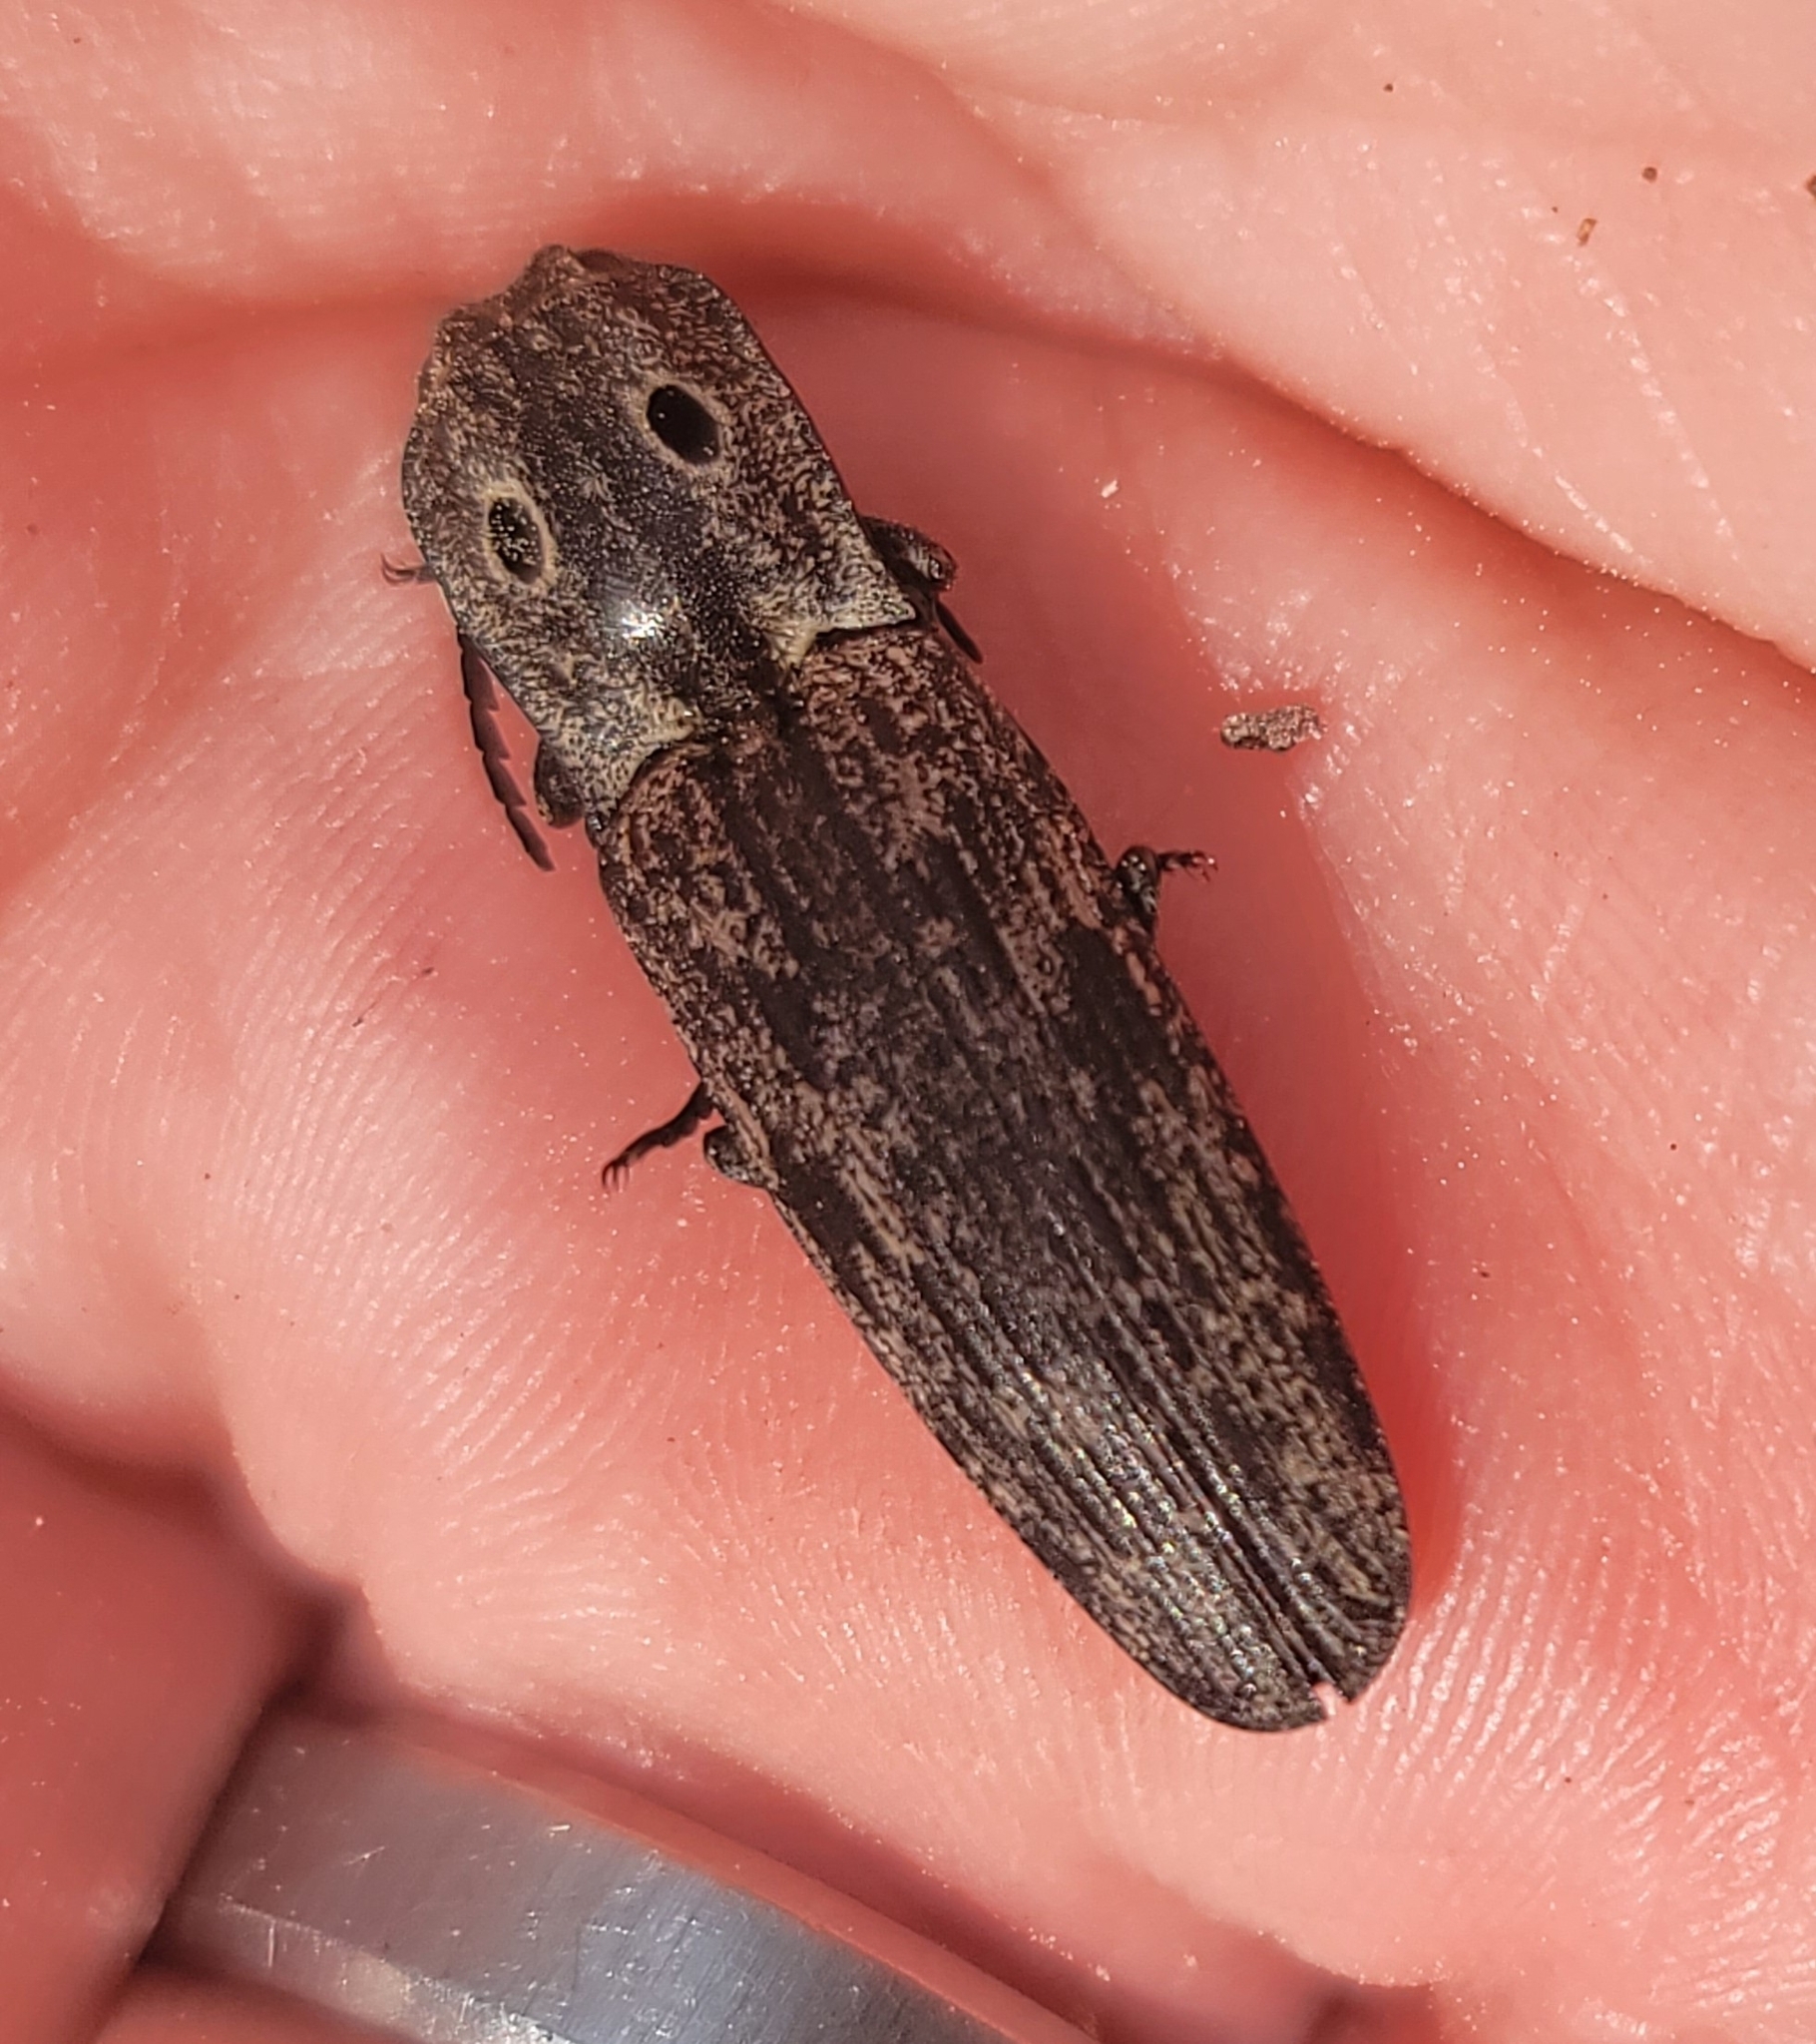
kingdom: Animalia
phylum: Arthropoda
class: Insecta
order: Coleoptera
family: Elateridae
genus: Alaus
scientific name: Alaus myops
